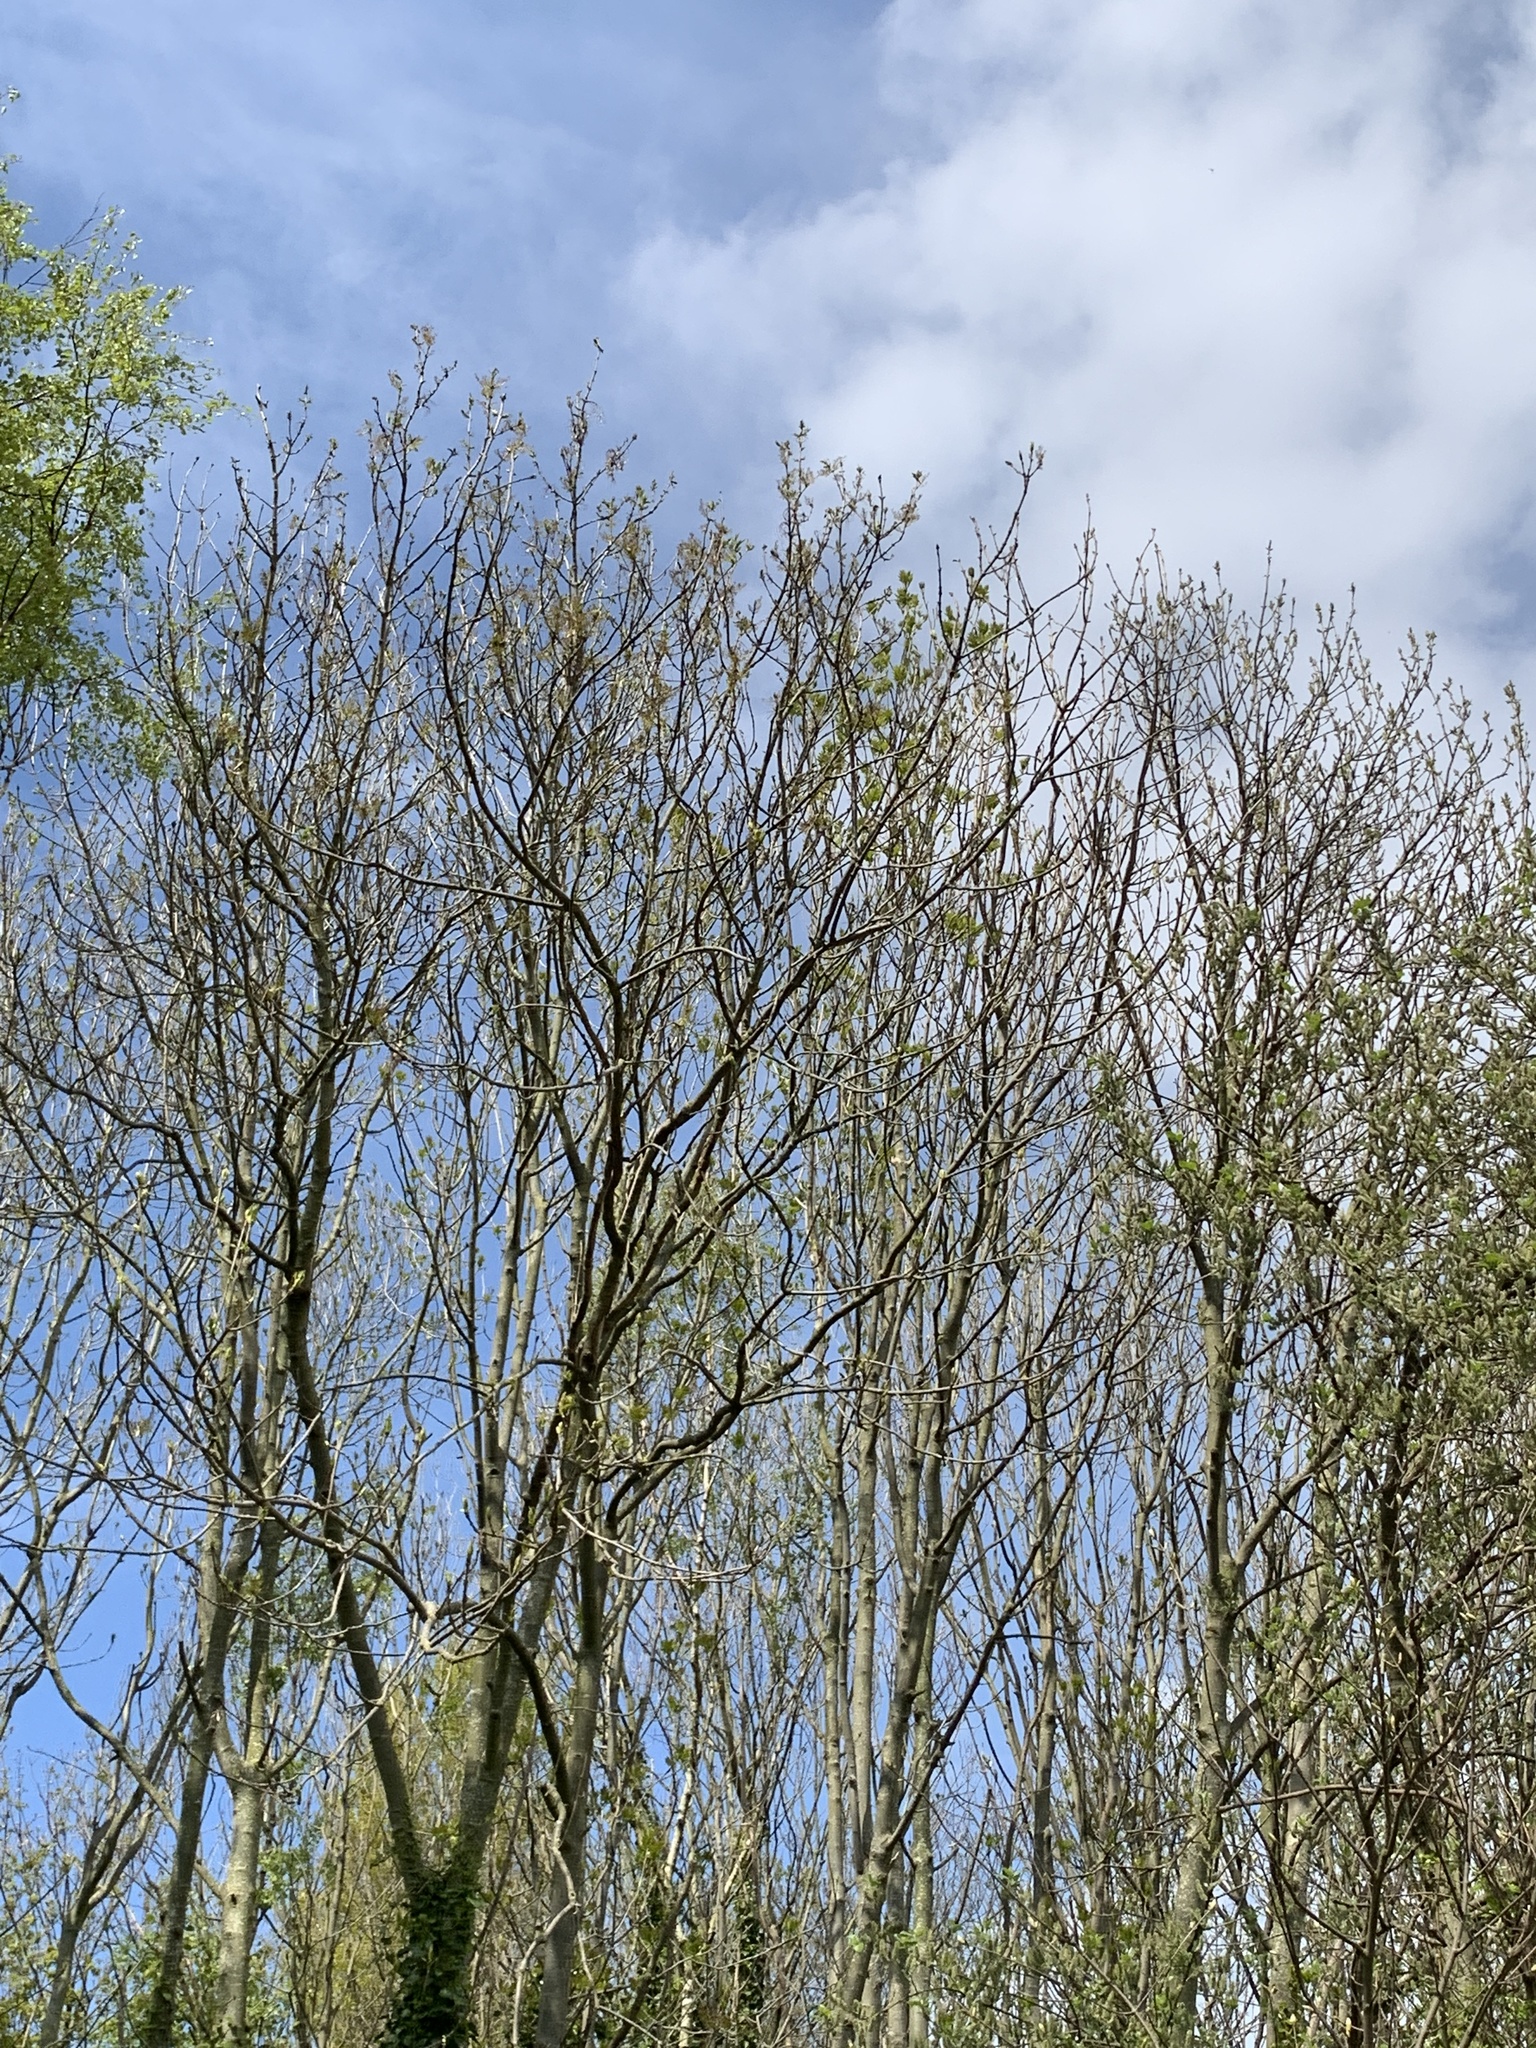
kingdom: Plantae
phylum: Tracheophyta
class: Magnoliopsida
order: Lamiales
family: Oleaceae
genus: Fraxinus
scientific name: Fraxinus excelsior
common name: European ash
